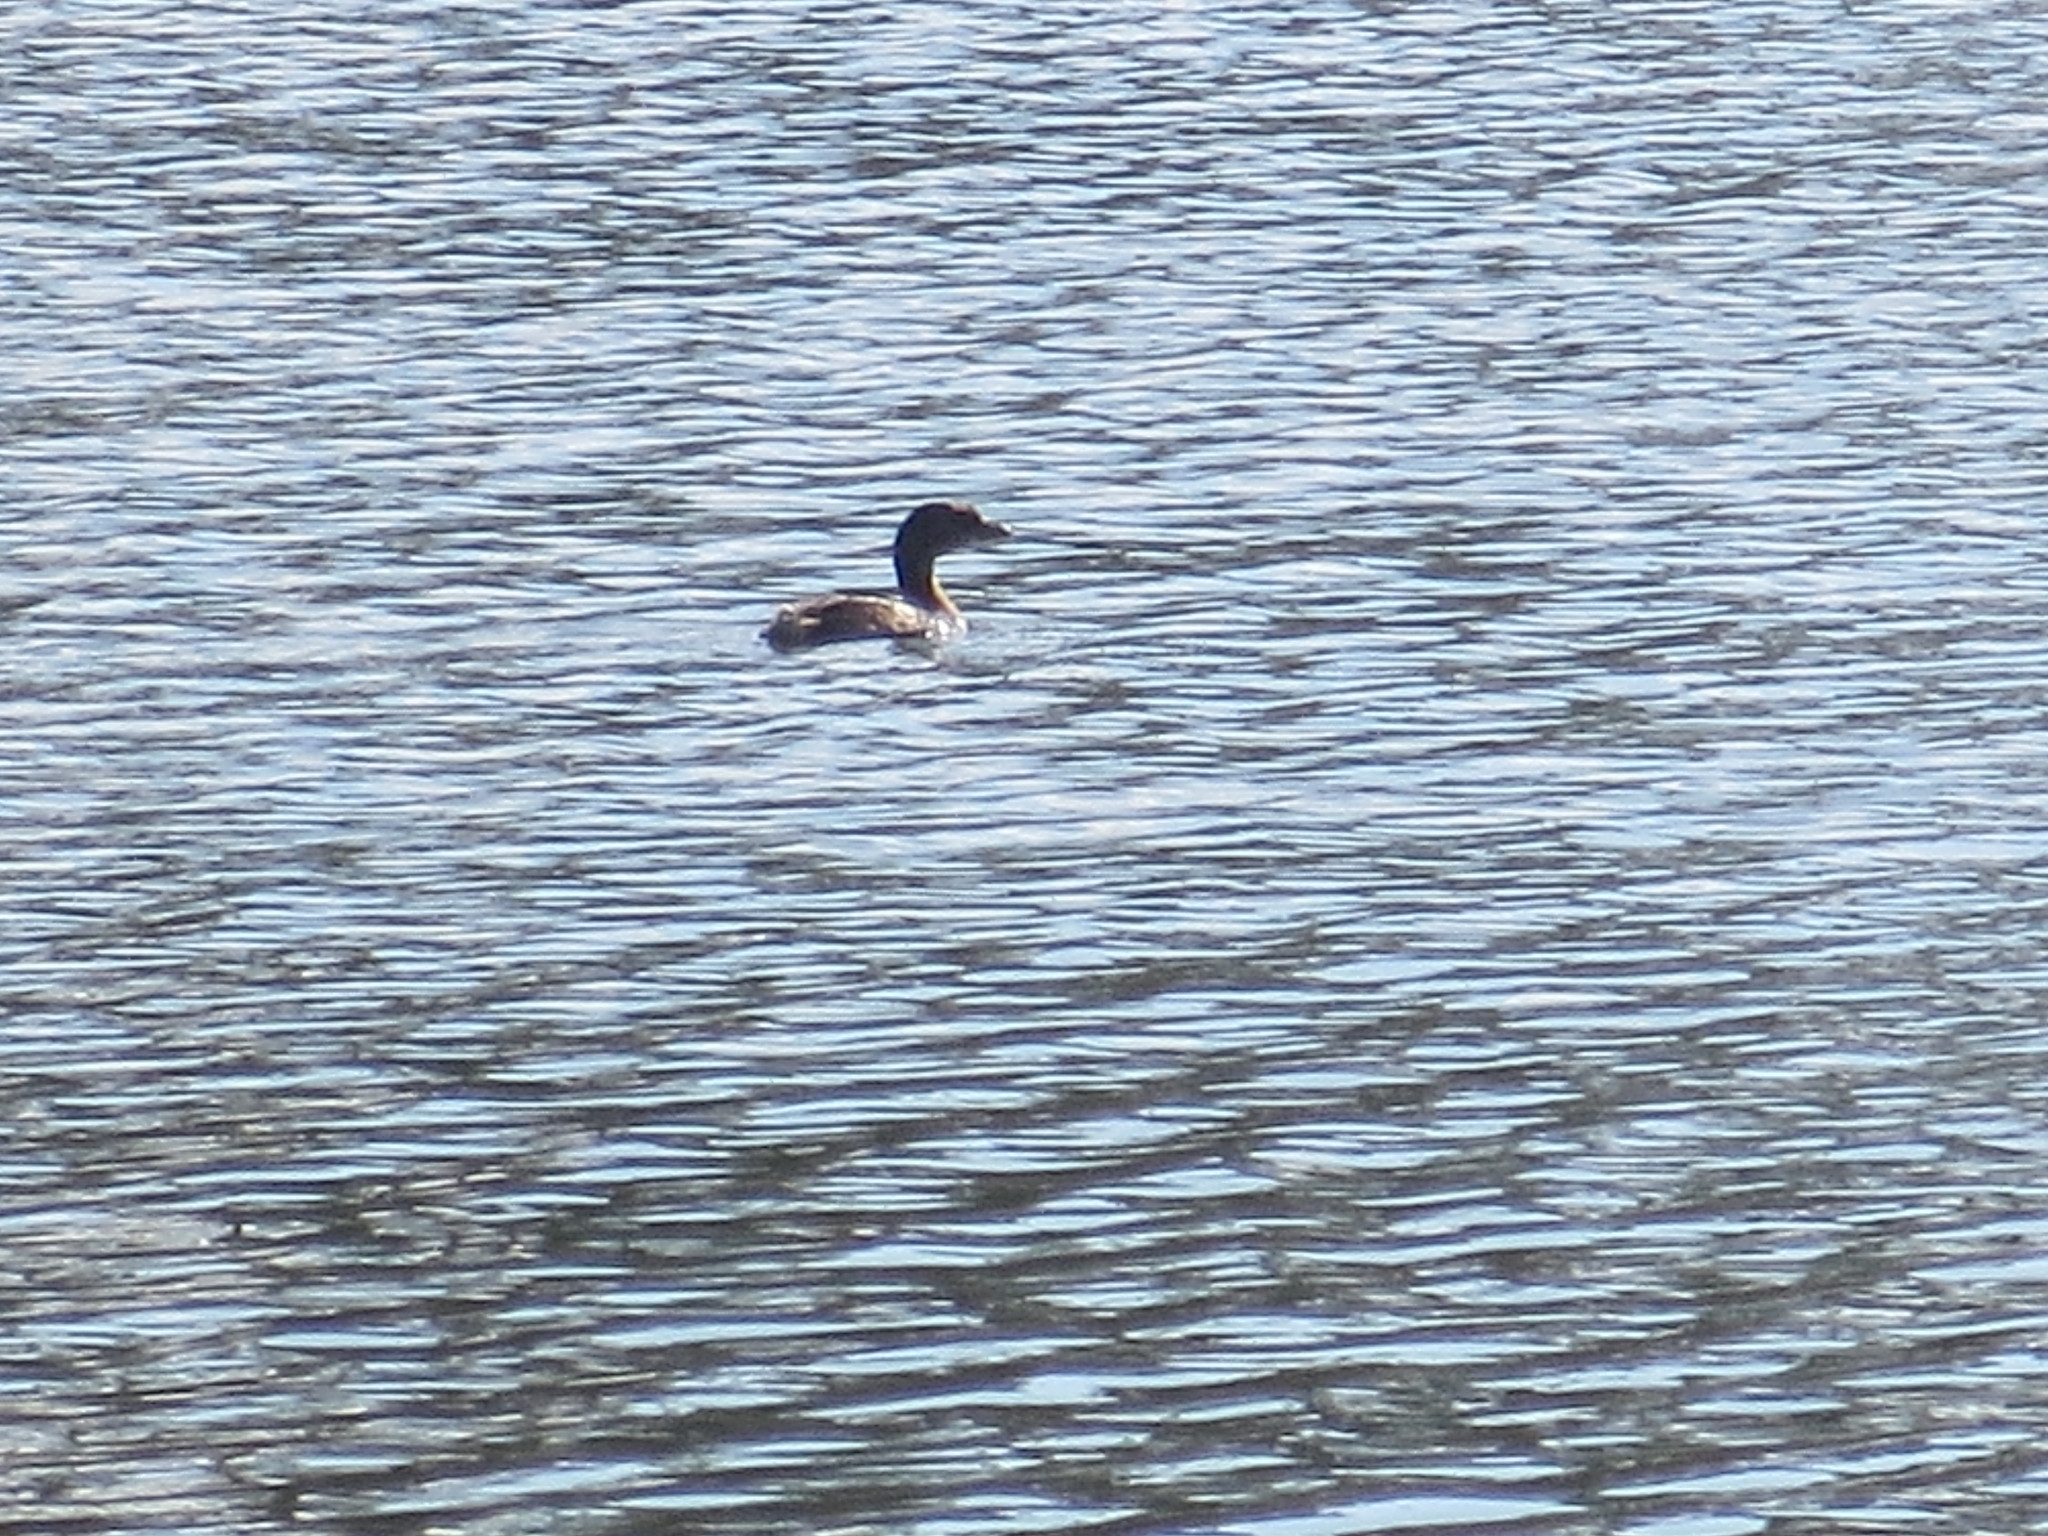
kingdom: Animalia
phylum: Chordata
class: Aves
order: Podicipediformes
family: Podicipedidae
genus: Podilymbus
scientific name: Podilymbus podiceps
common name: Pied-billed grebe
